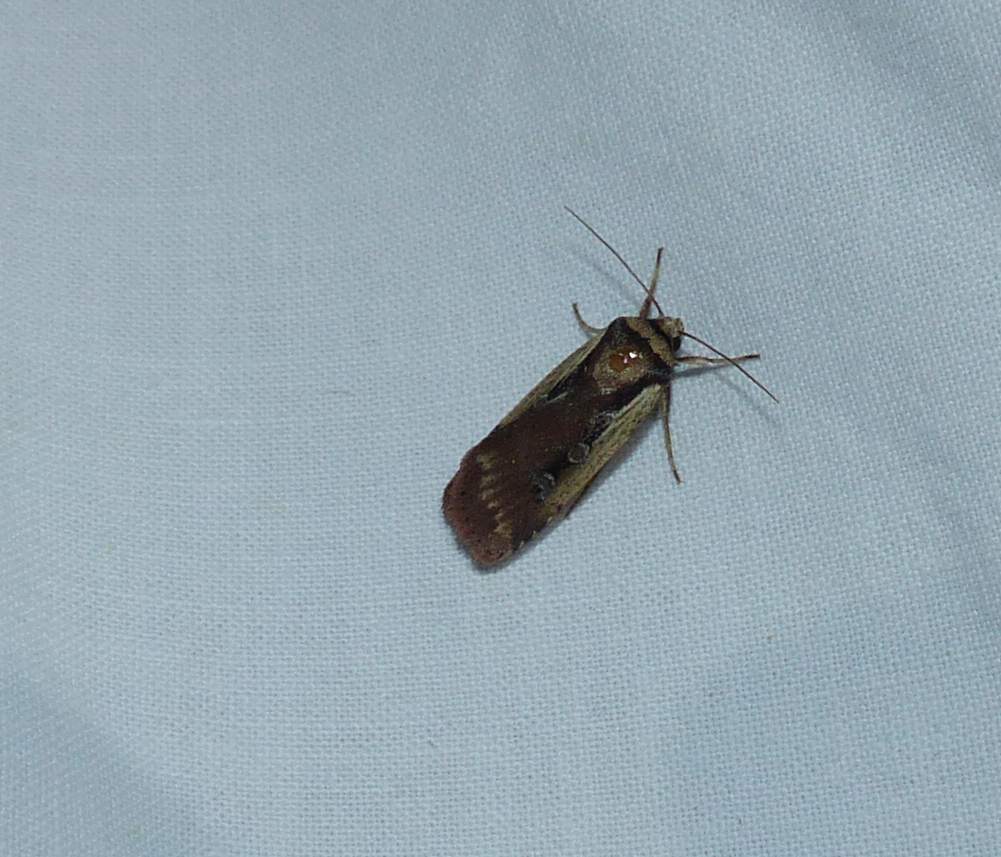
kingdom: Animalia
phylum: Arthropoda
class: Insecta
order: Lepidoptera
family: Noctuidae
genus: Ochropleura
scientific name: Ochropleura implecta
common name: Flame-shouldered dart
